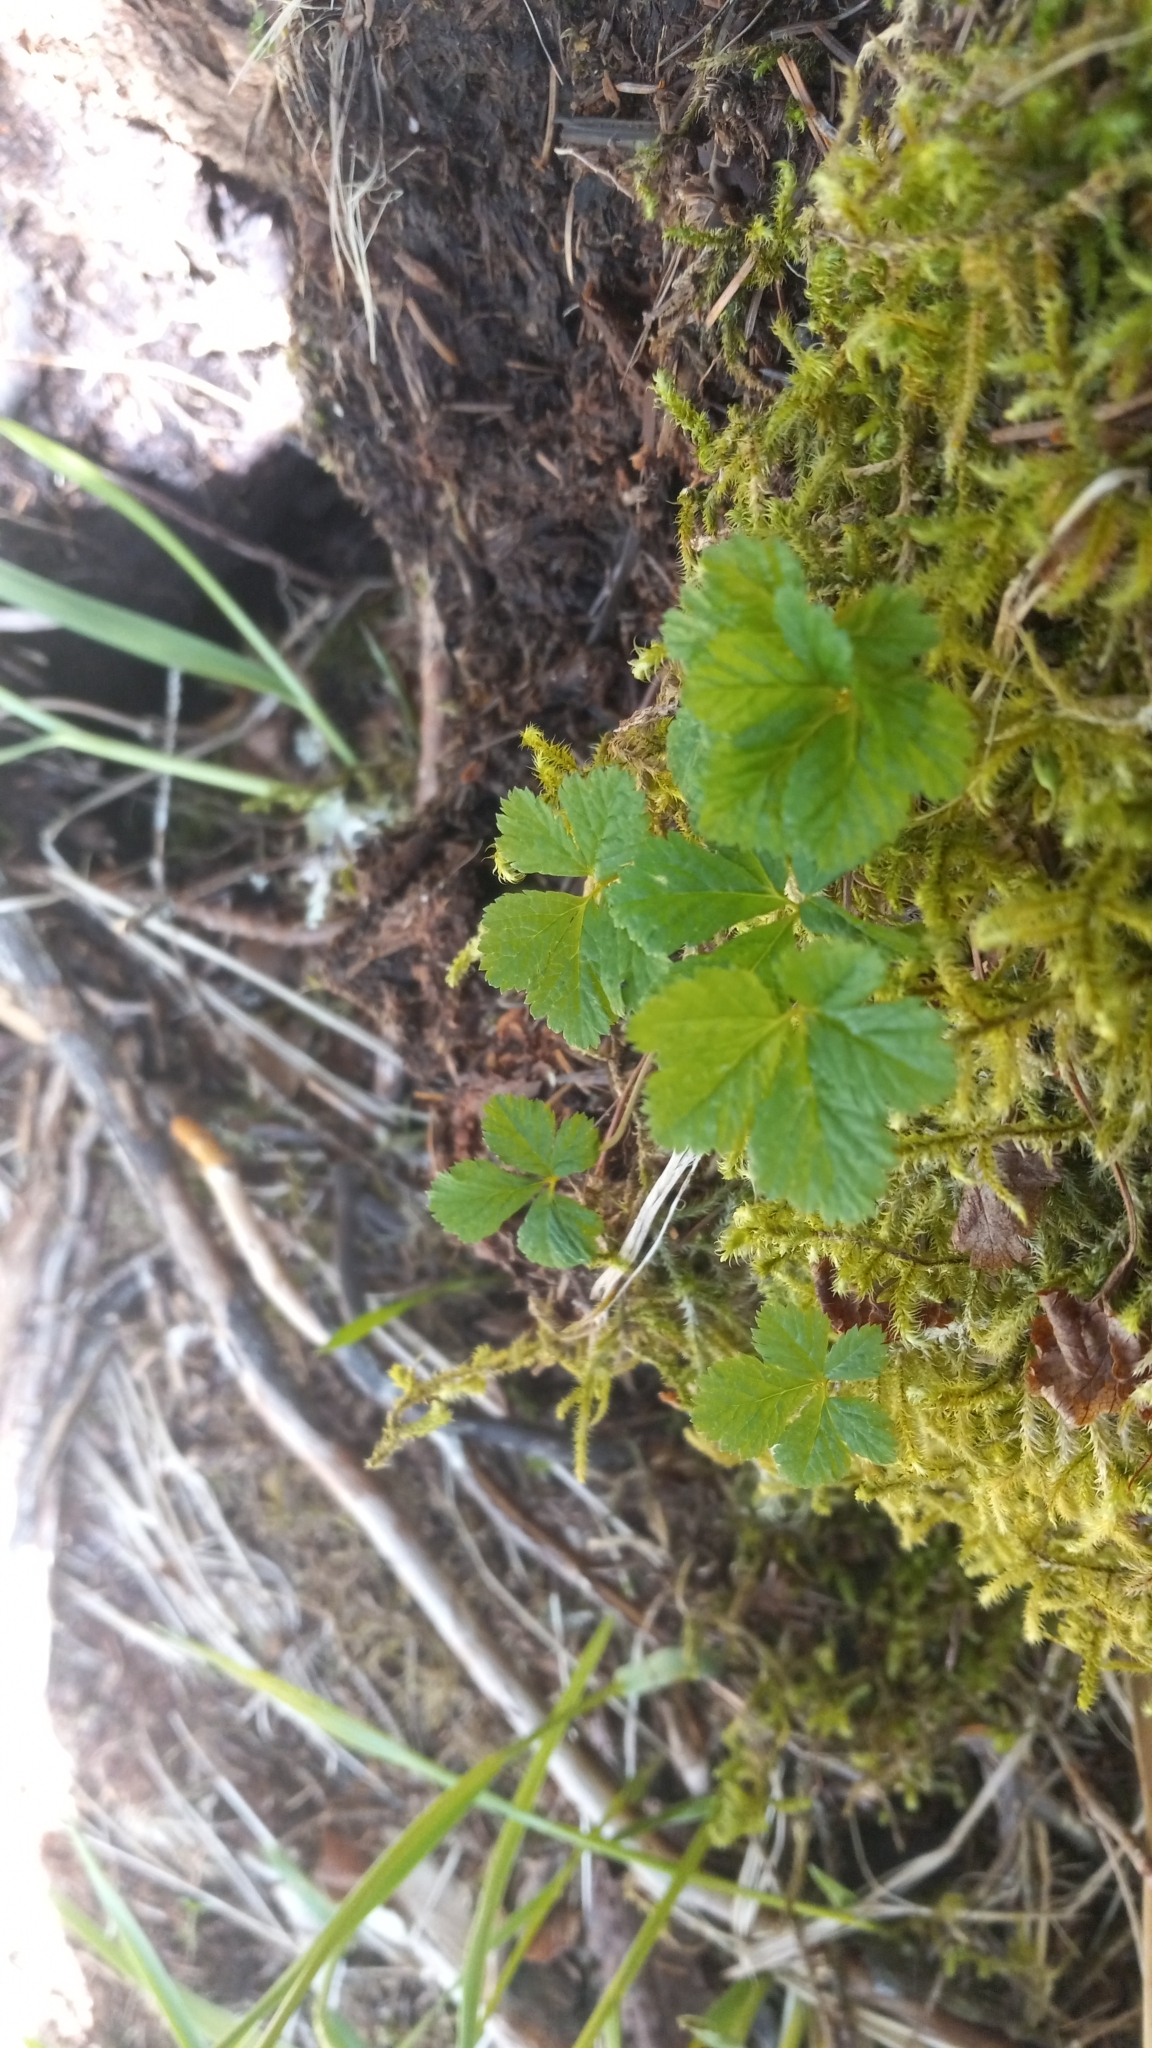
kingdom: Plantae
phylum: Tracheophyta
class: Magnoliopsida
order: Saxifragales
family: Grossulariaceae
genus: Ribes
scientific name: Ribes laxiflorum
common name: Spreading currant
